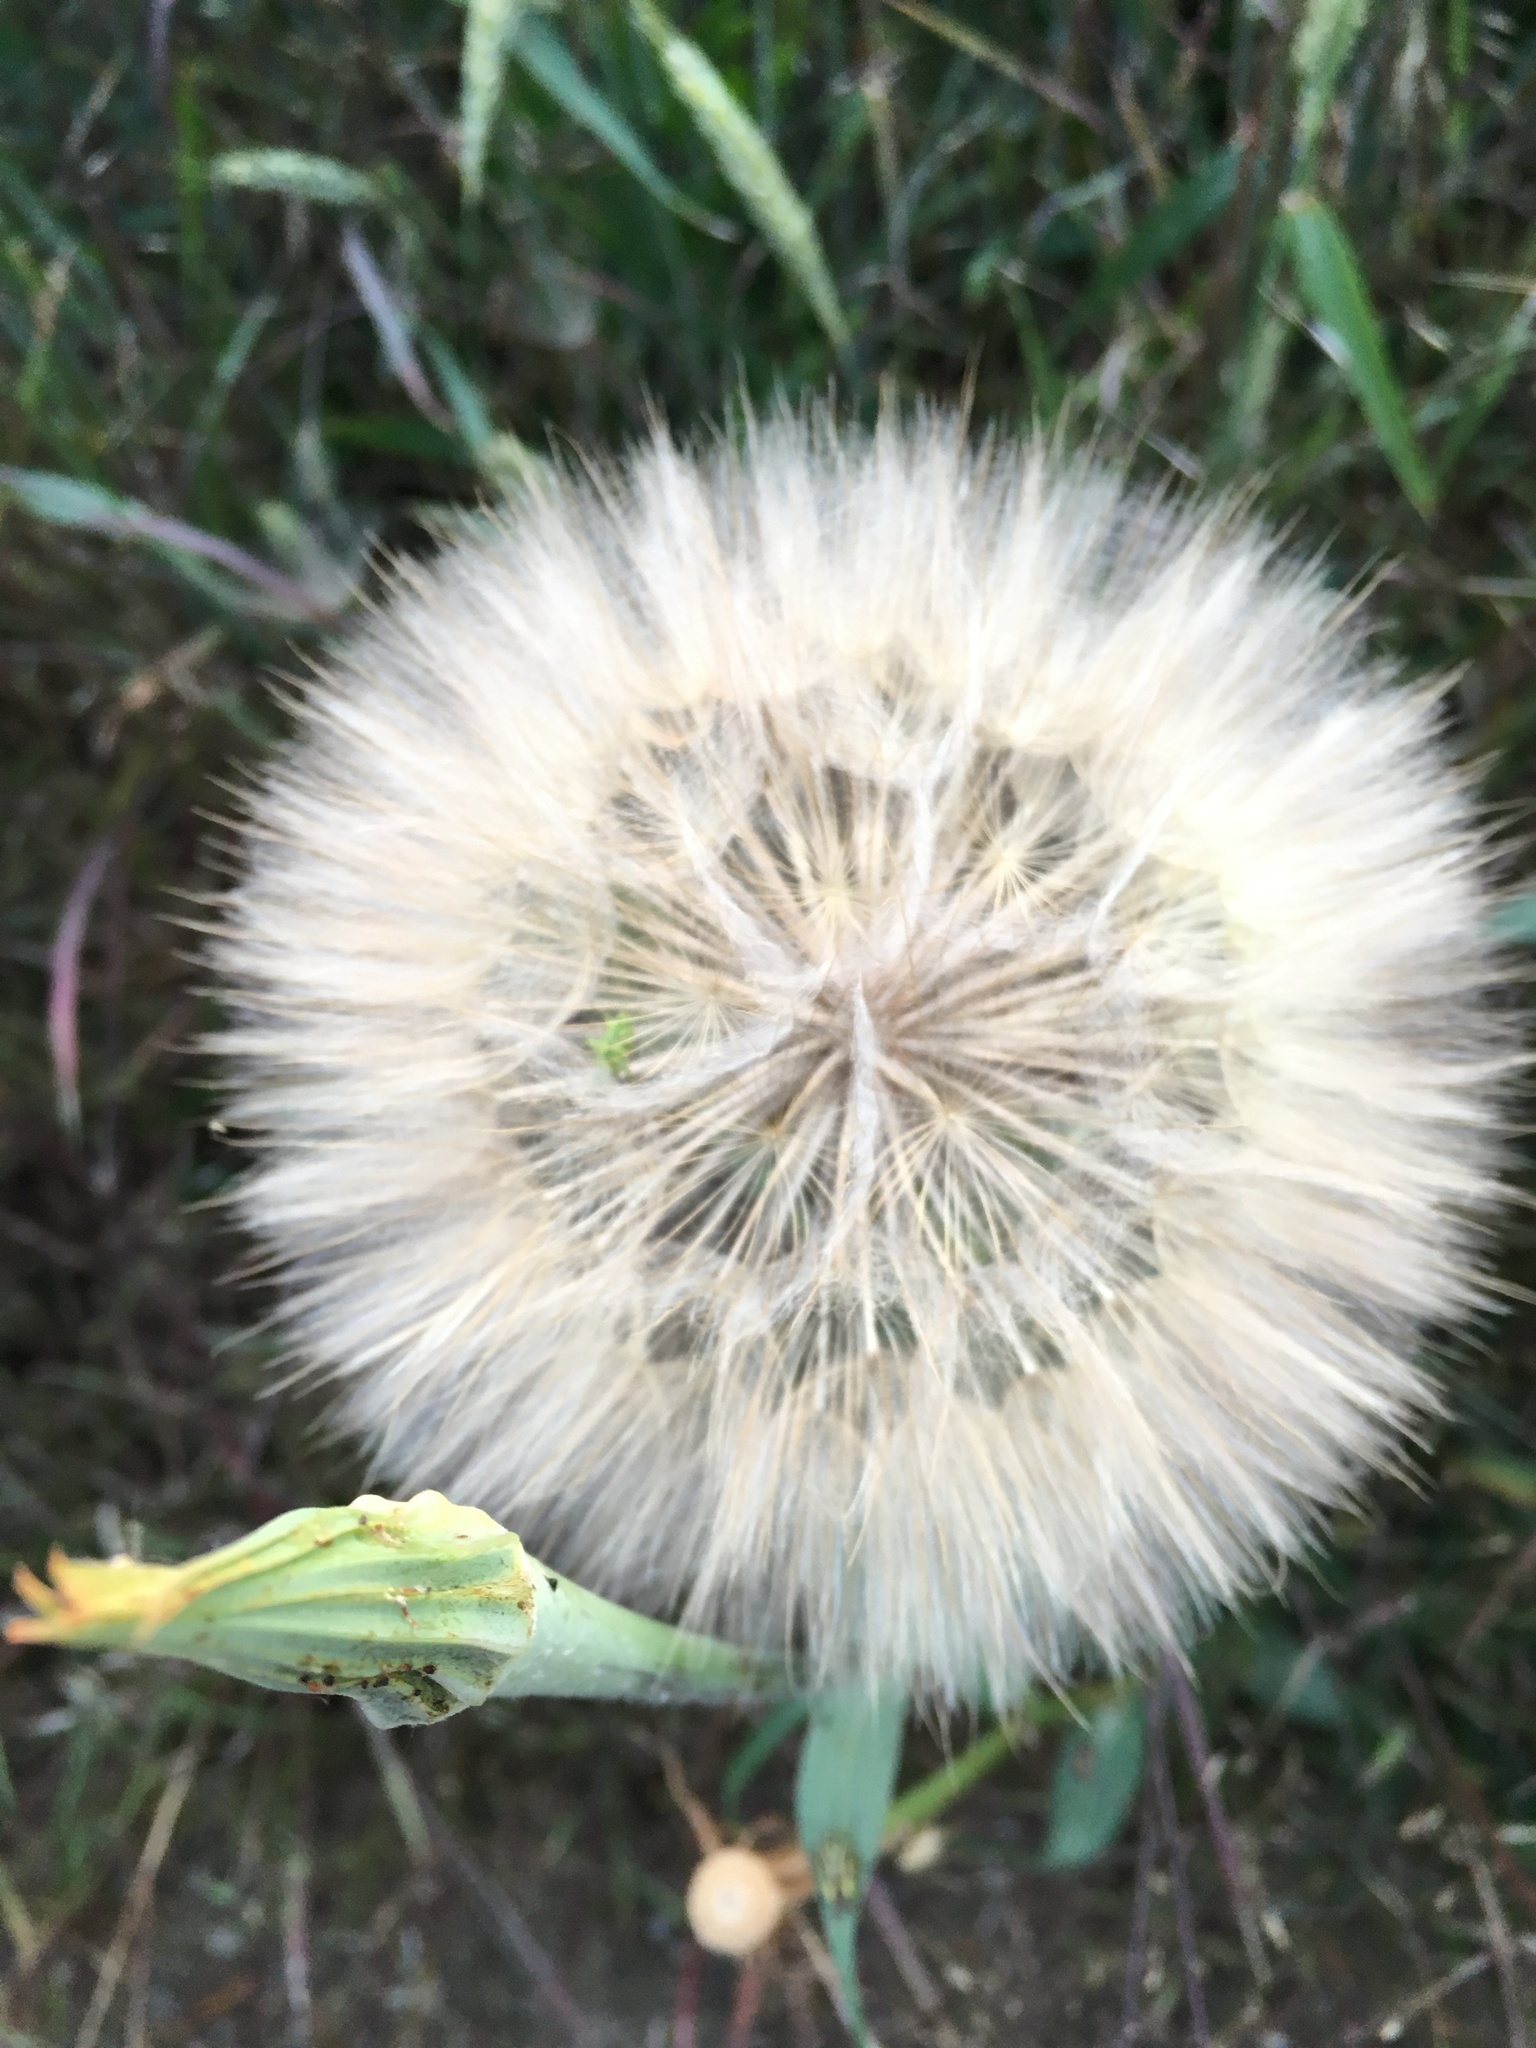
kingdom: Plantae
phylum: Tracheophyta
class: Magnoliopsida
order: Asterales
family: Asteraceae
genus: Tragopogon
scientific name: Tragopogon dubius
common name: Yellow salsify
